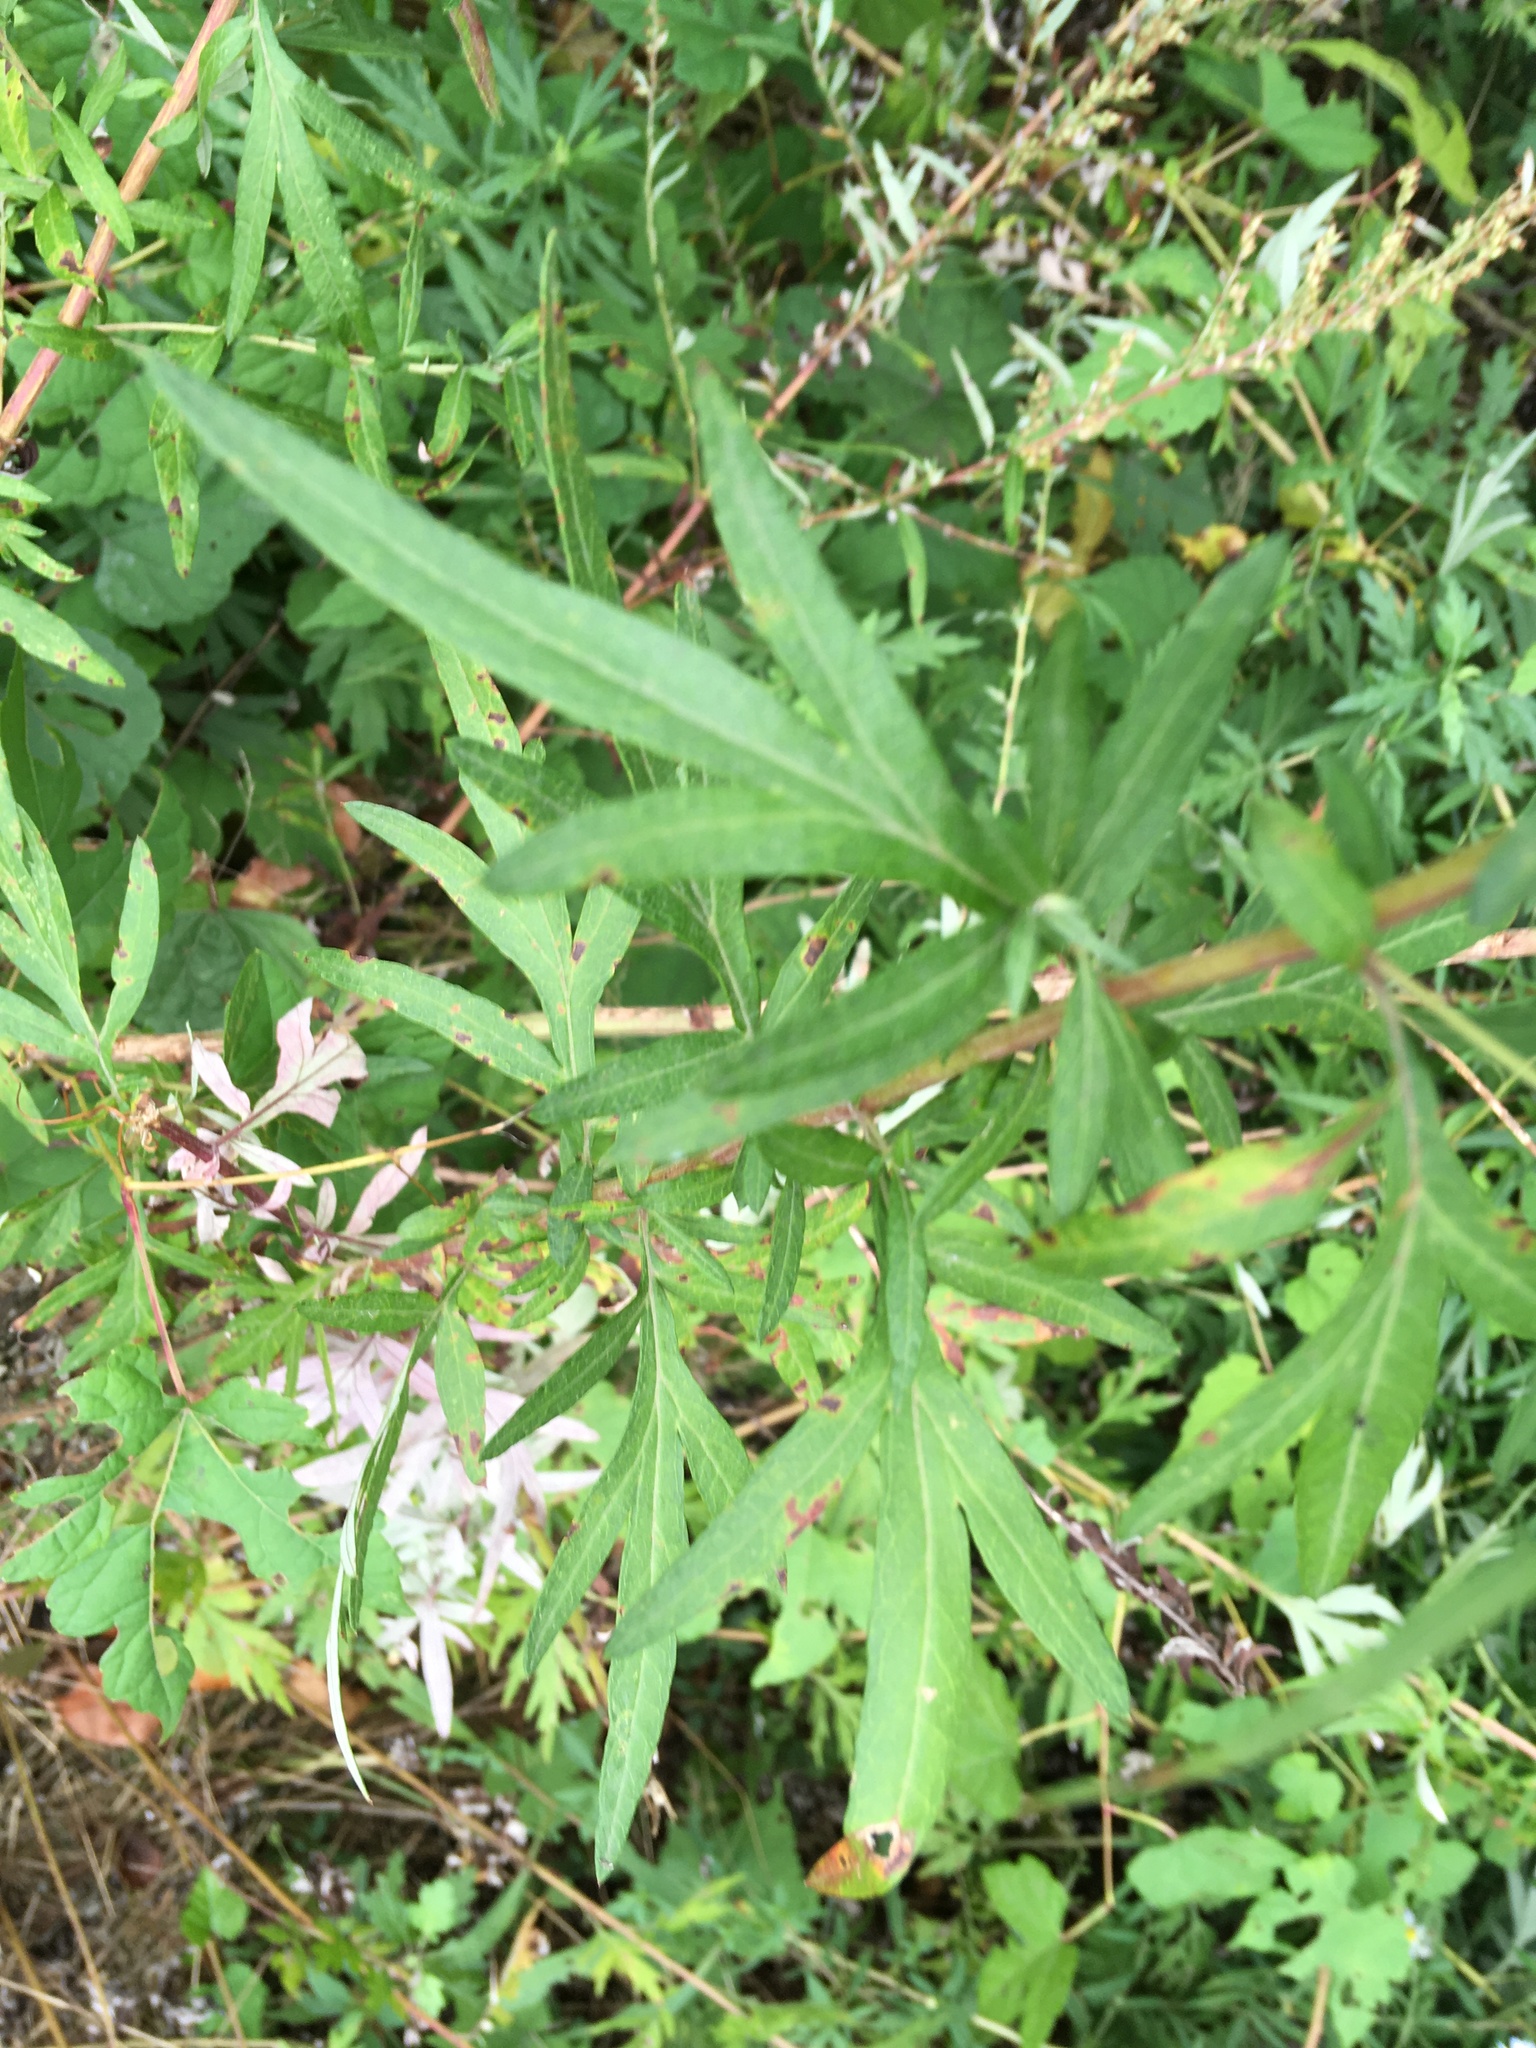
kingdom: Plantae
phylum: Tracheophyta
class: Magnoliopsida
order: Asterales
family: Asteraceae
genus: Artemisia
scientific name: Artemisia vulgaris
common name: Mugwort
